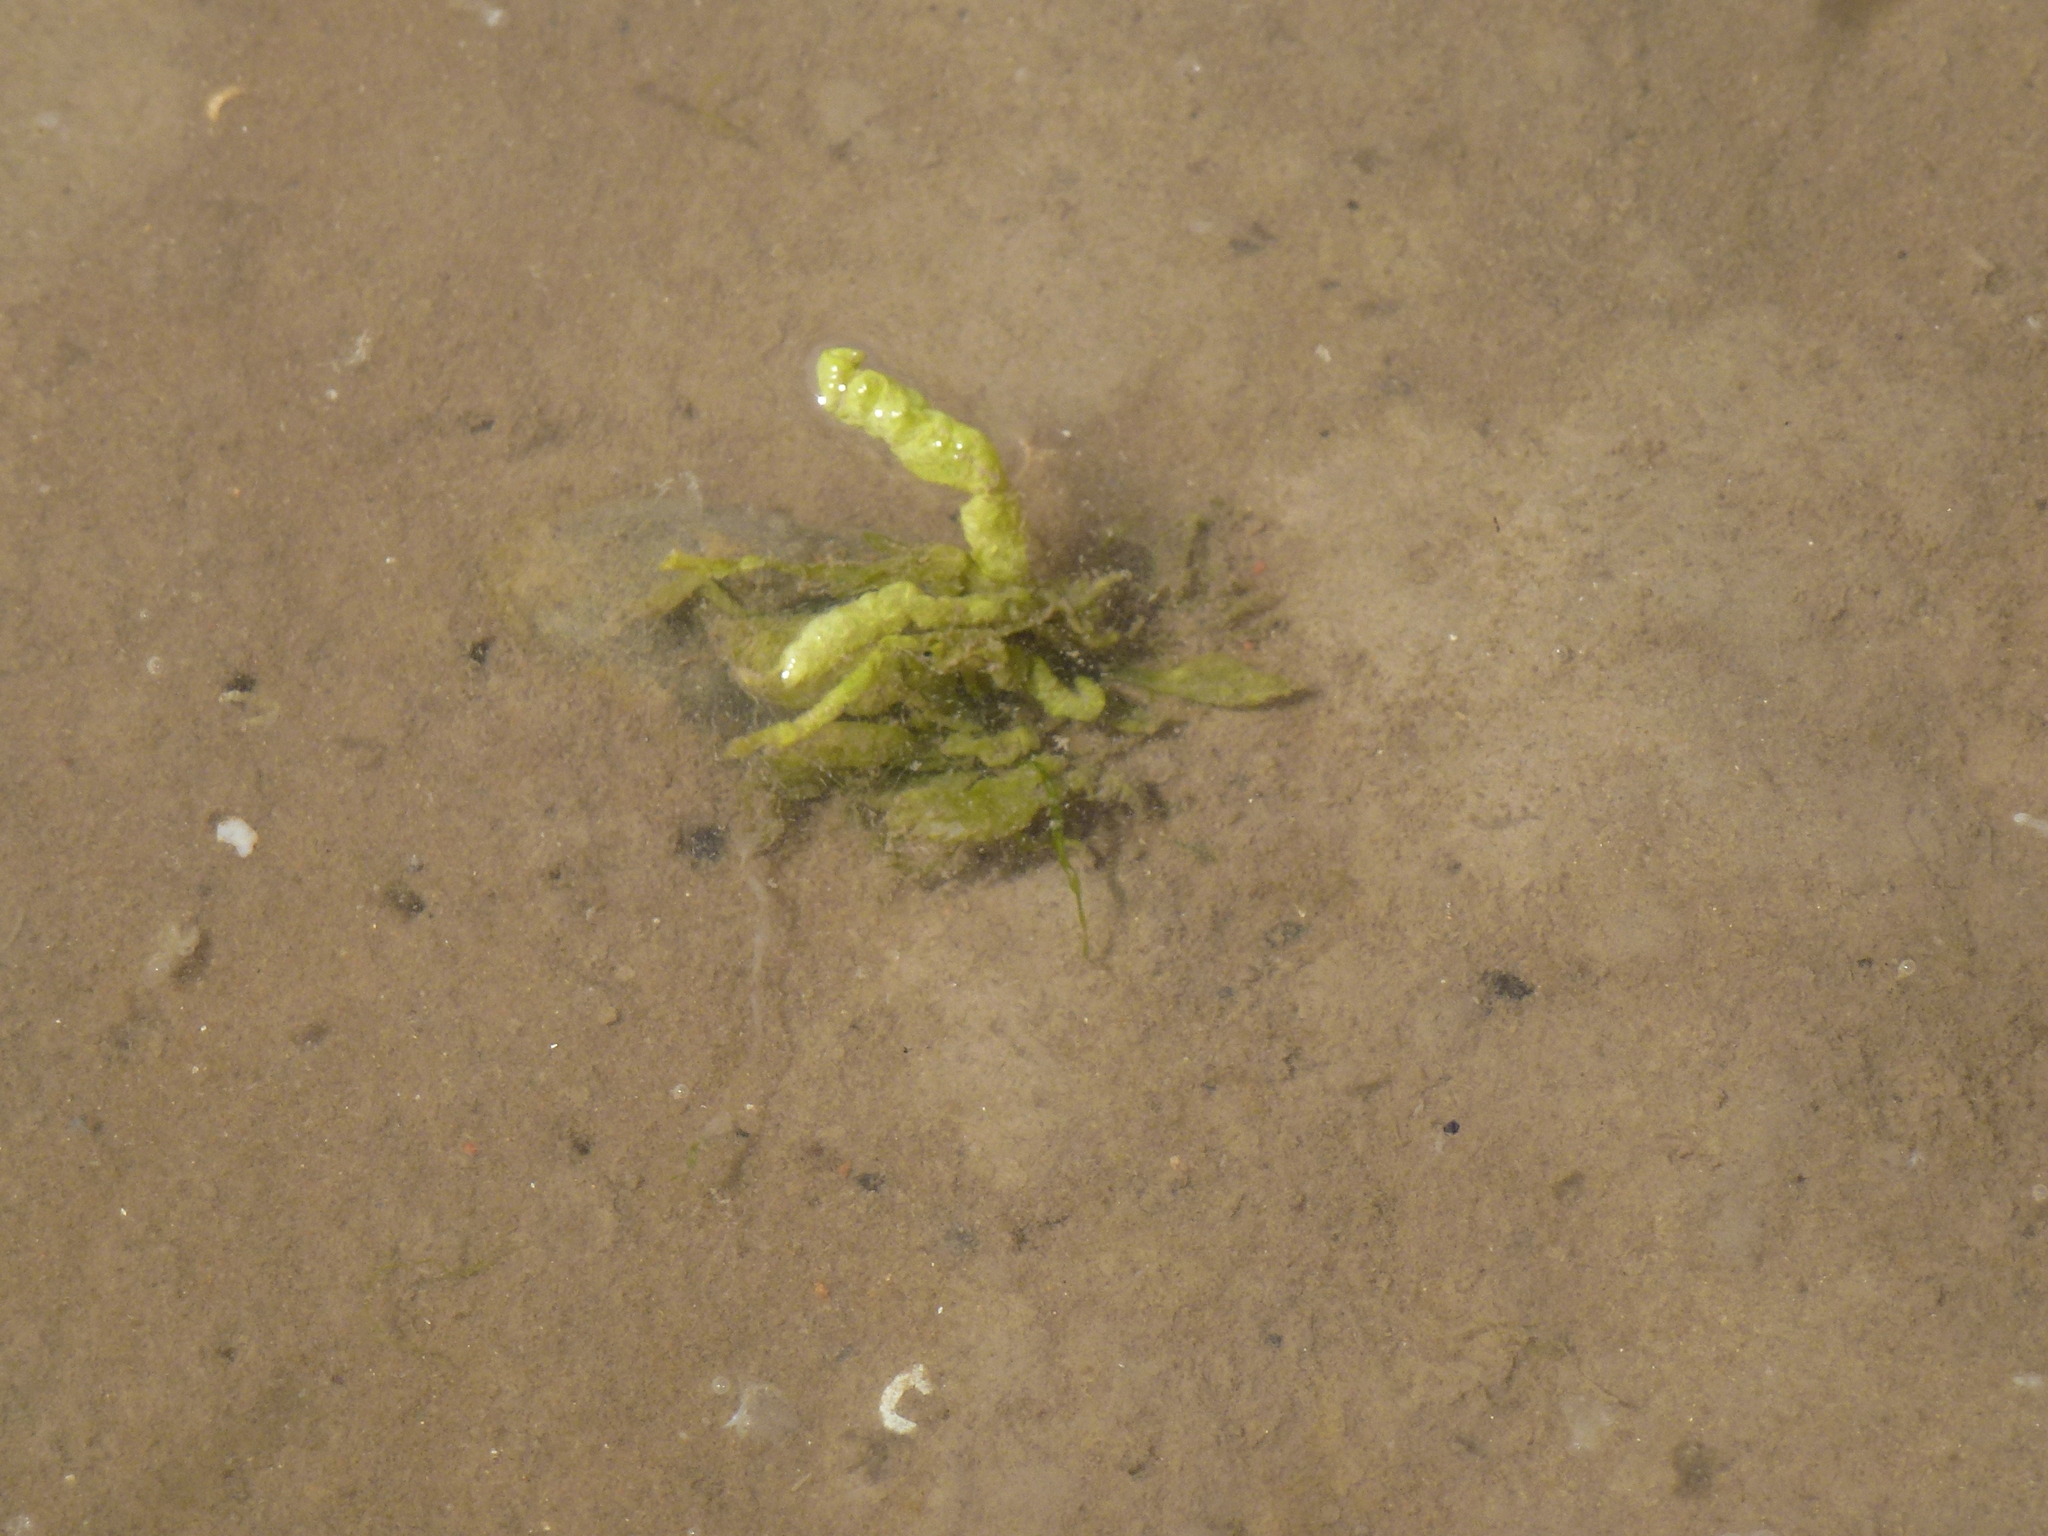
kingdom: Plantae
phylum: Chlorophyta
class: Ulvophyceae
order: Ulvales
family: Ulvaceae
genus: Ulva
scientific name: Ulva intestinalis
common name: Gut weed
